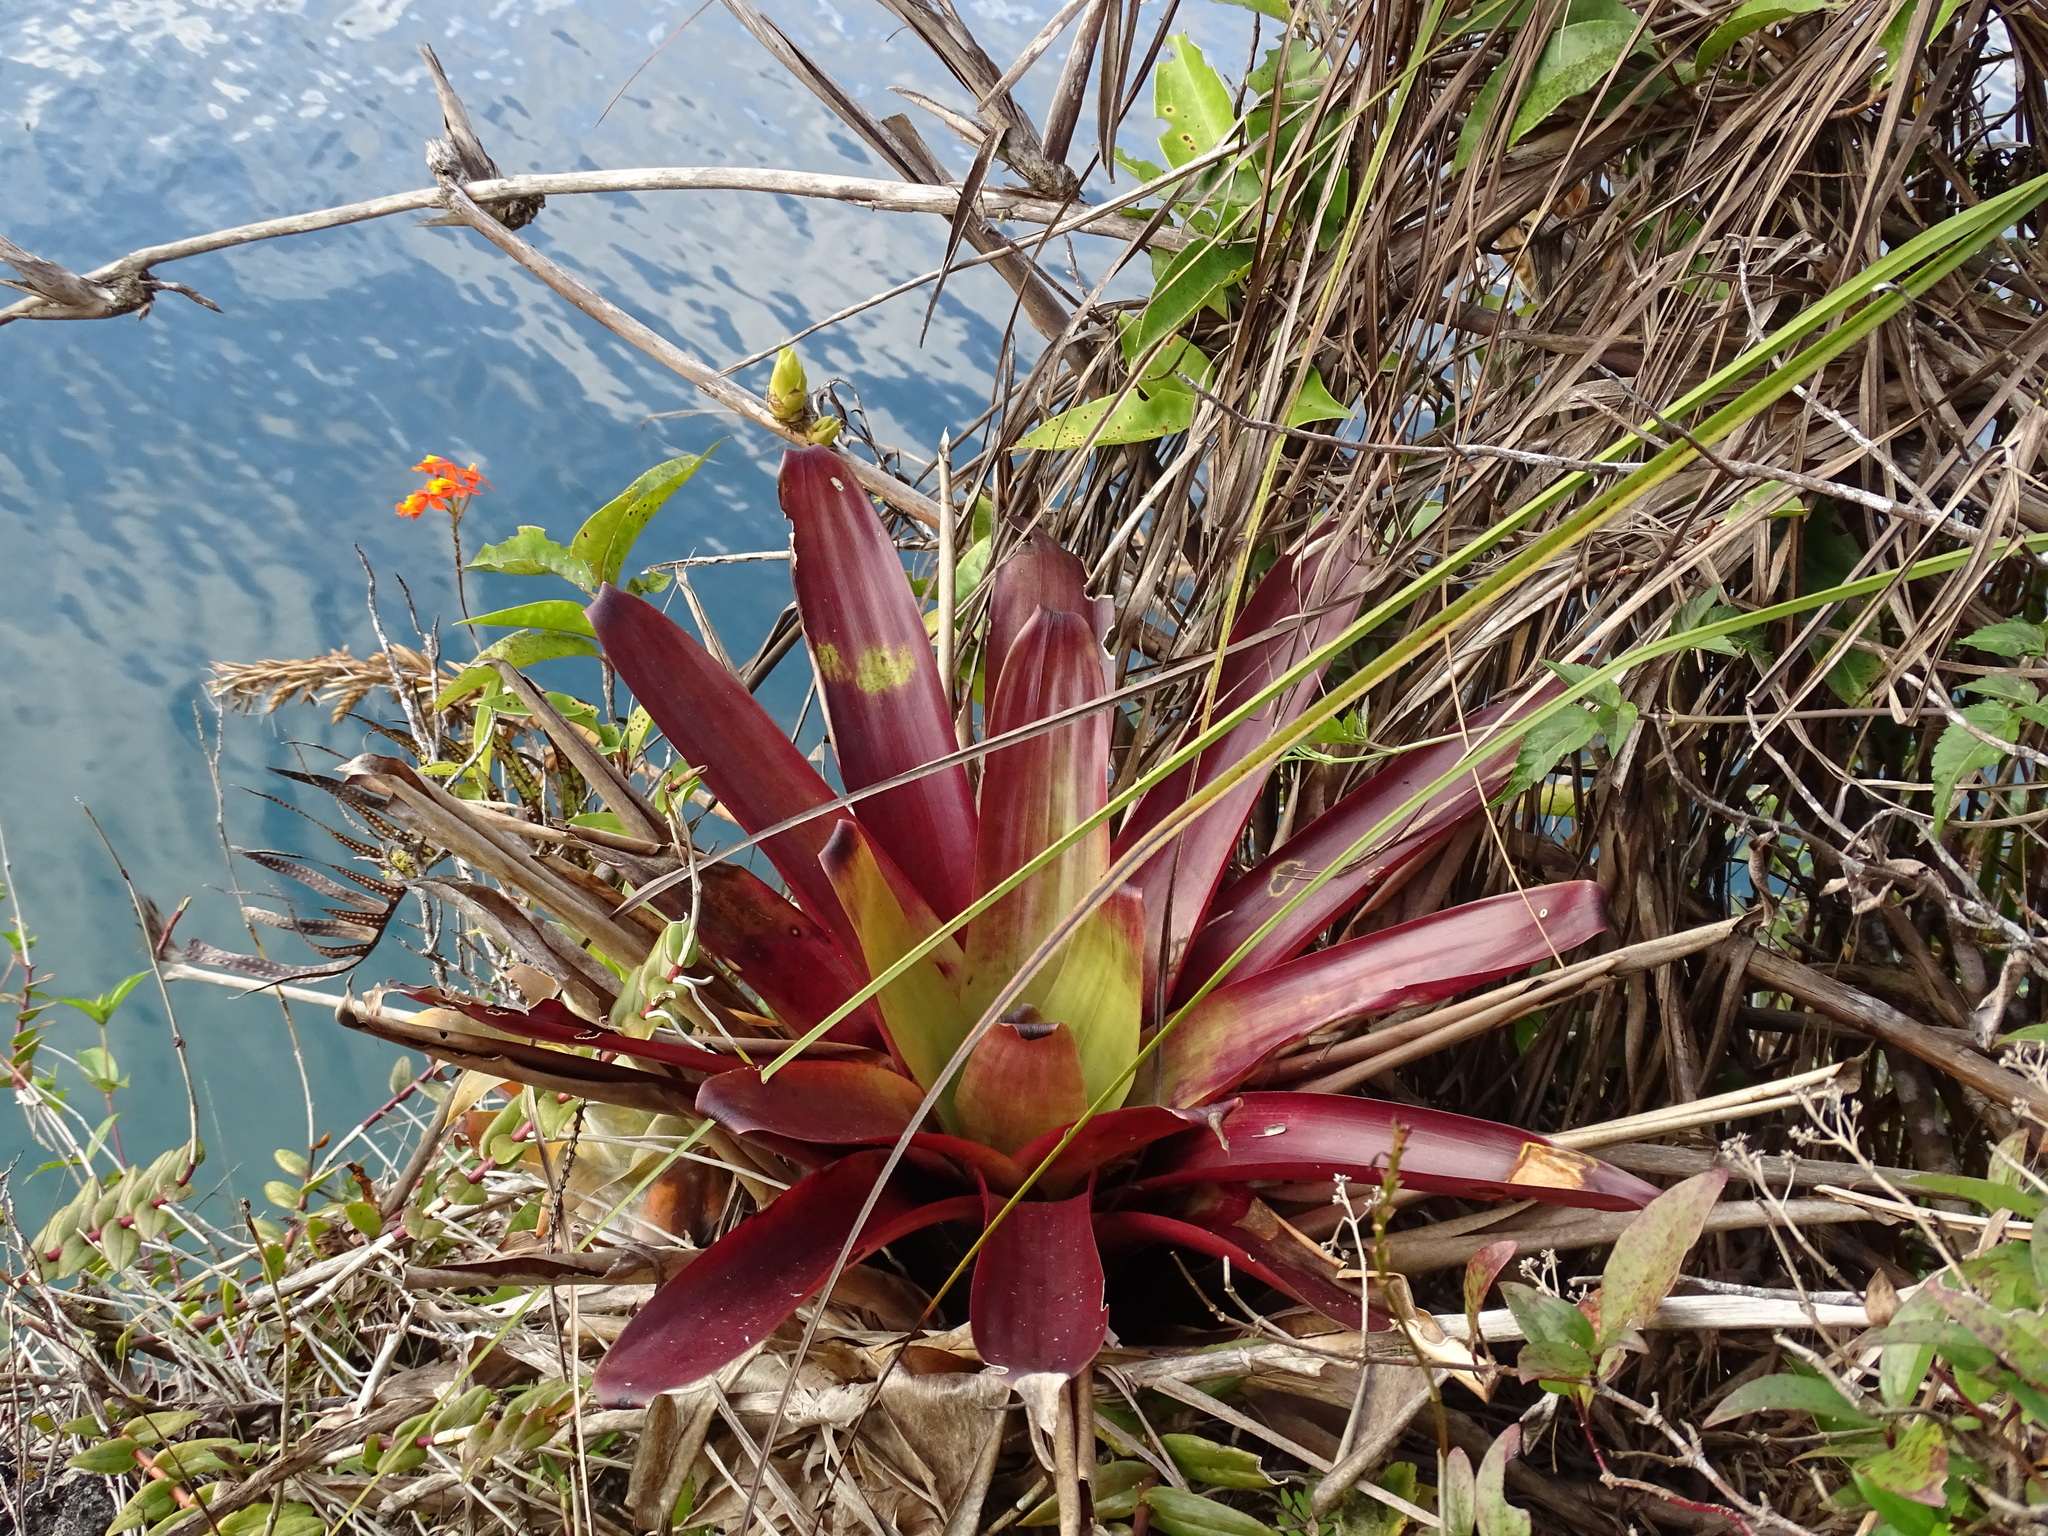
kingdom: Plantae
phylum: Tracheophyta
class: Liliopsida
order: Poales
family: Bromeliaceae
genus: Werauhia
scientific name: Werauhia werckleana
